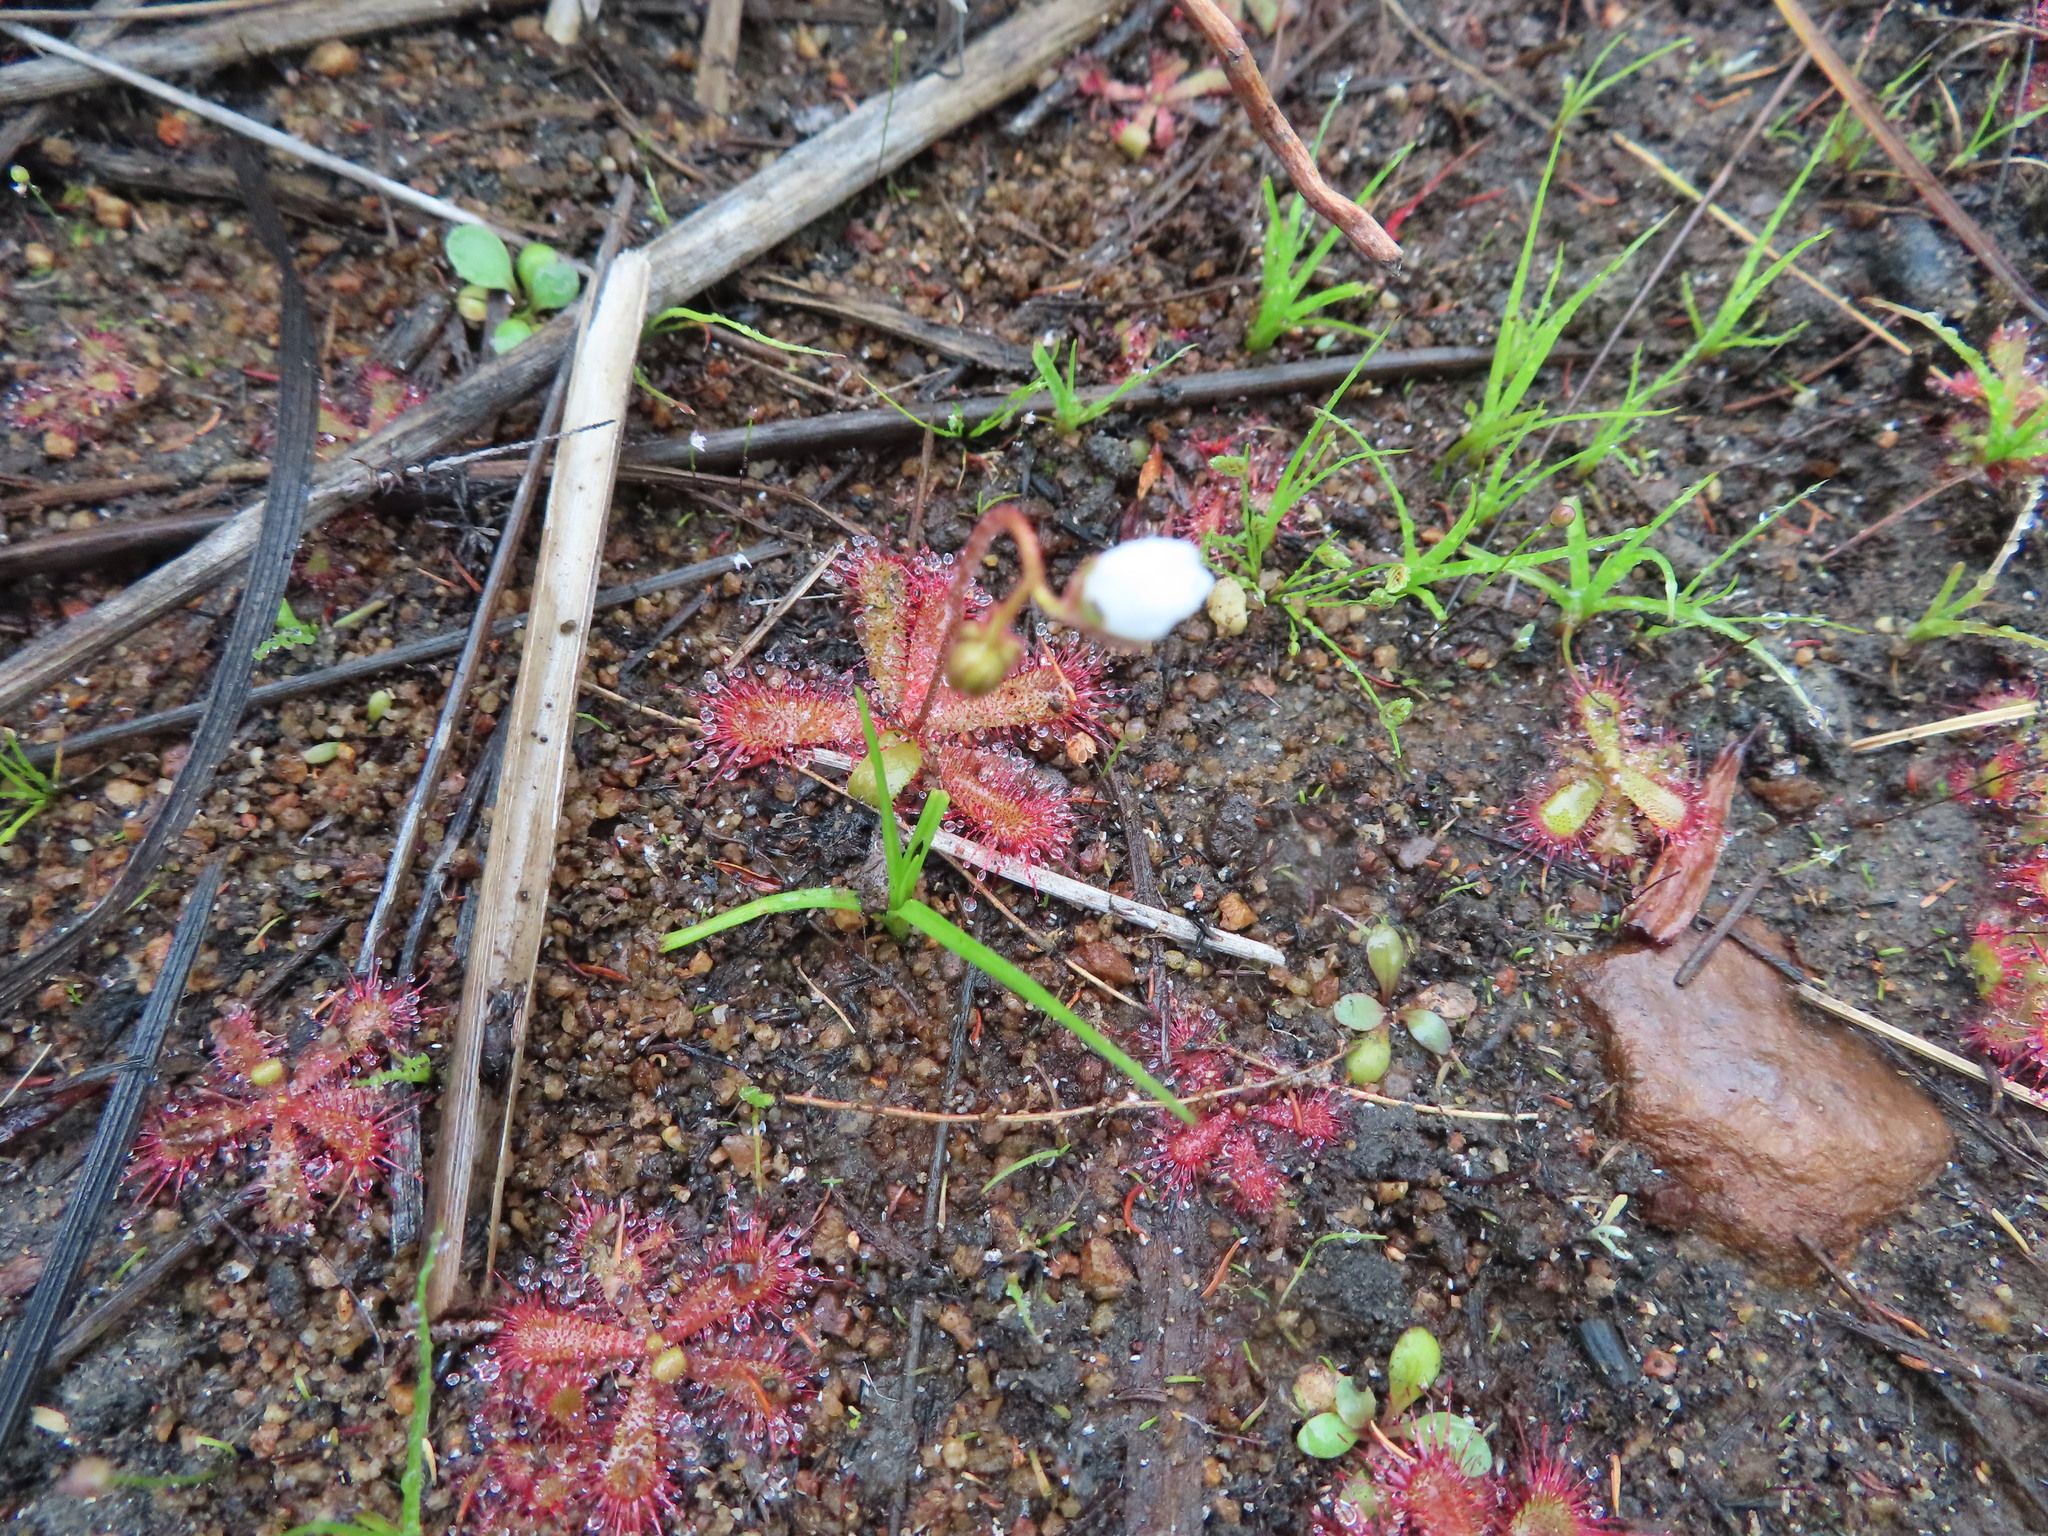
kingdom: Plantae
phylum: Tracheophyta
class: Magnoliopsida
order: Caryophyllales
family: Droseraceae
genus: Drosera
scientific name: Drosera trinervia
